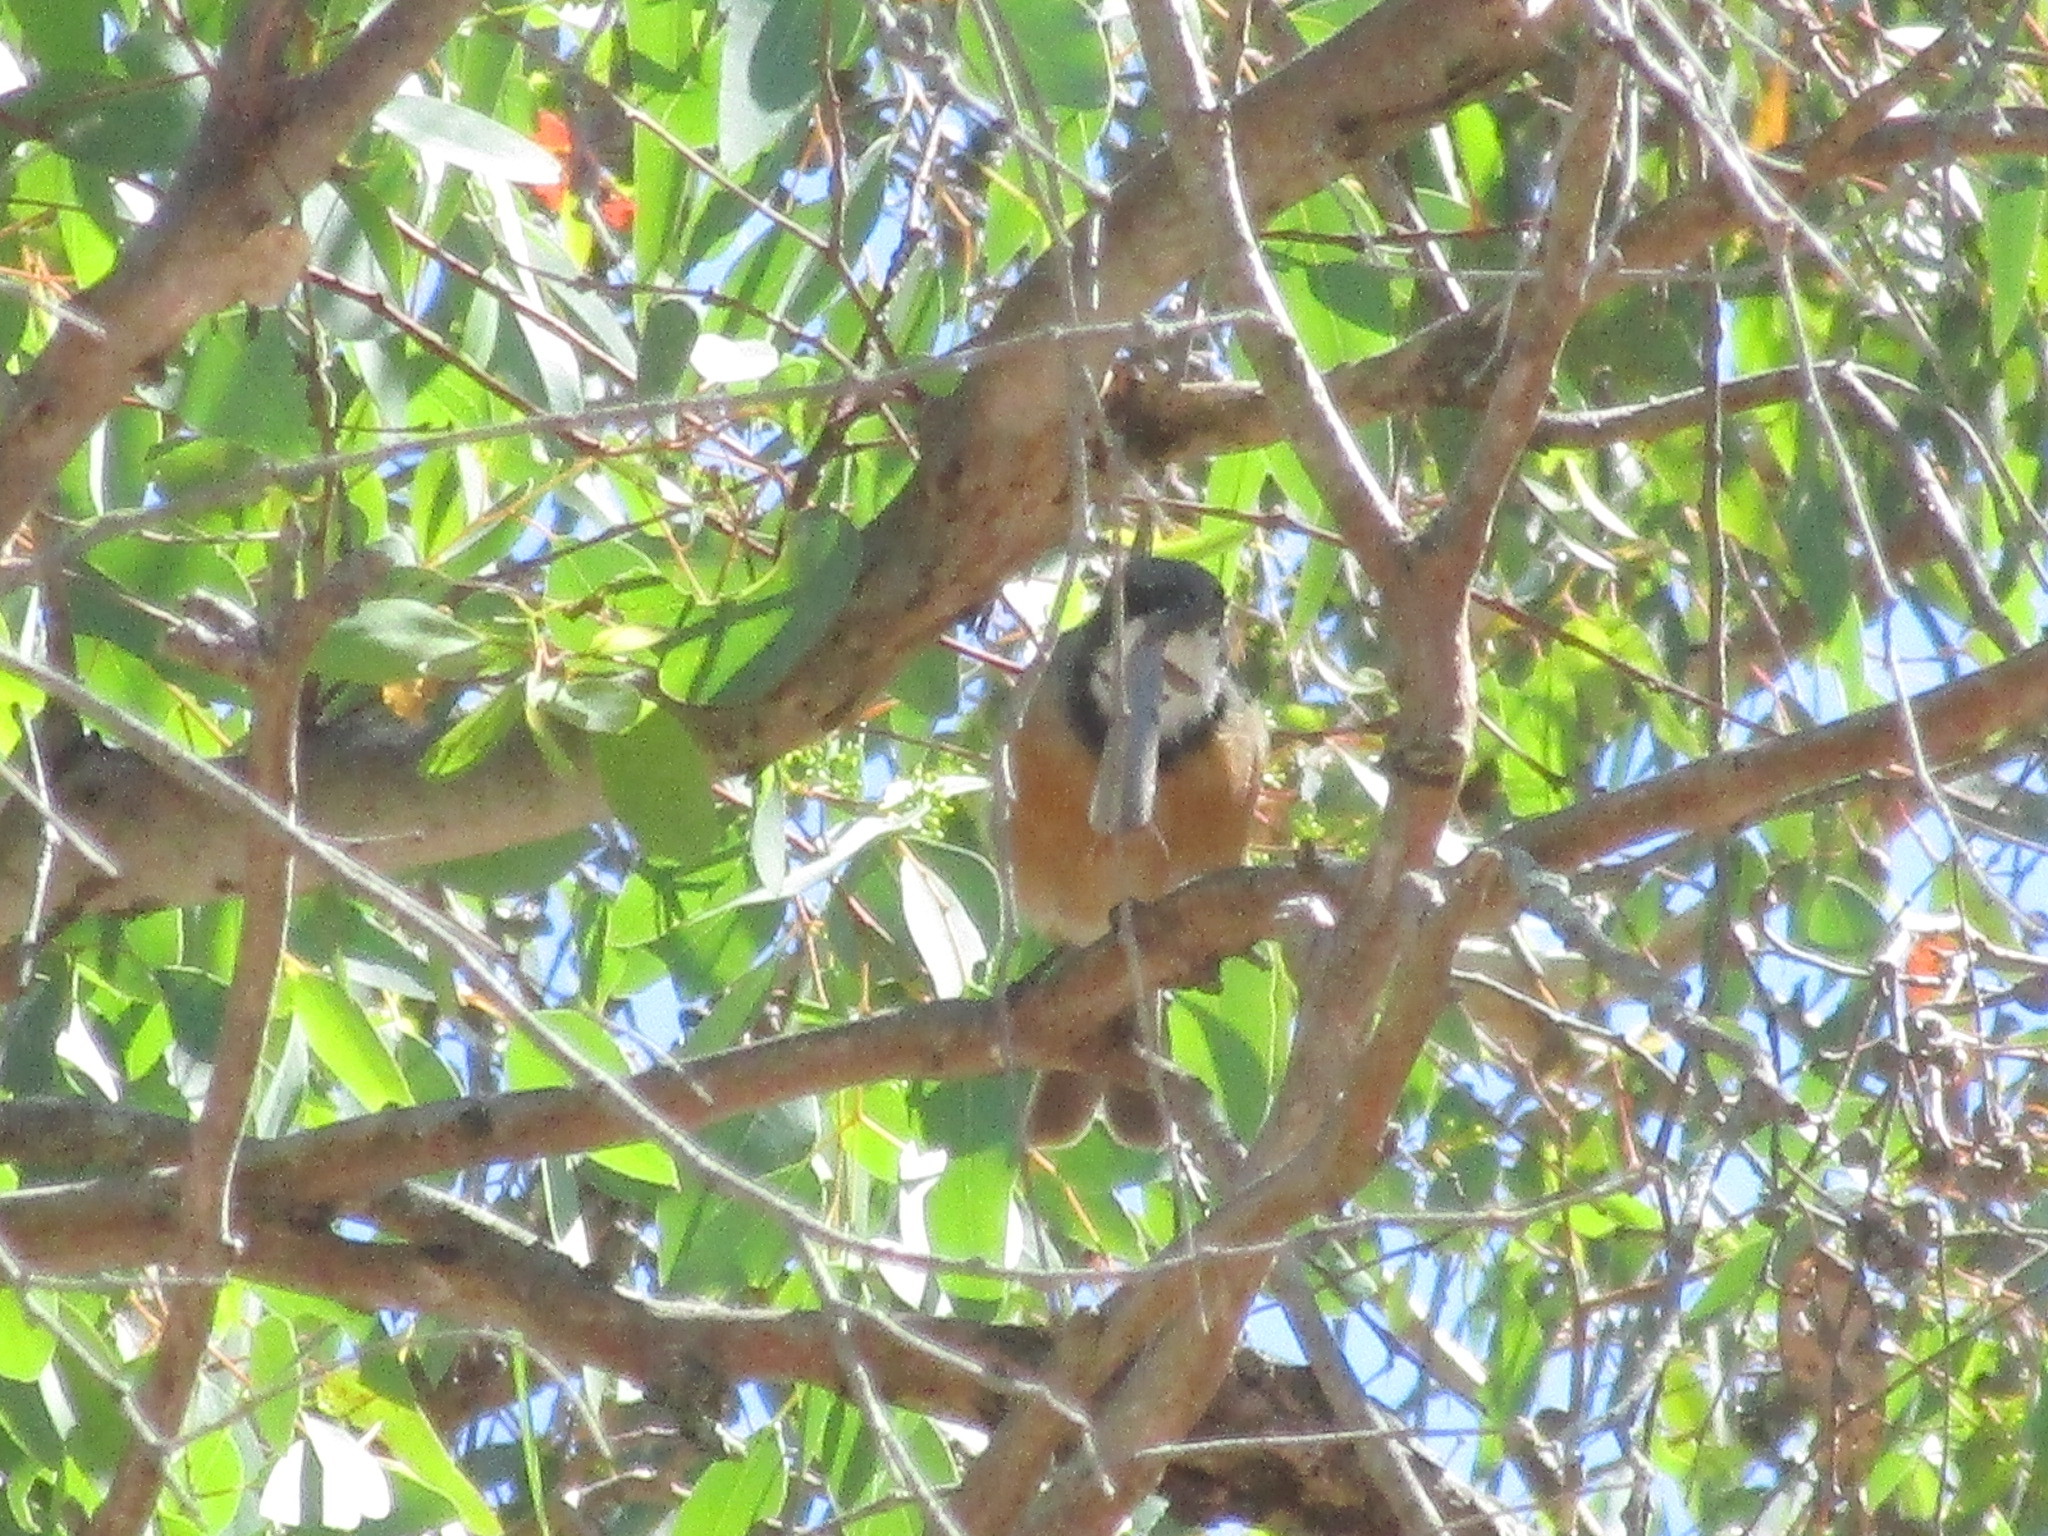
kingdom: Animalia
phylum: Chordata
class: Aves
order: Passeriformes
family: Pachycephalidae
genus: Pachycephala
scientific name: Pachycephala rufiventris
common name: Rufous whistler
